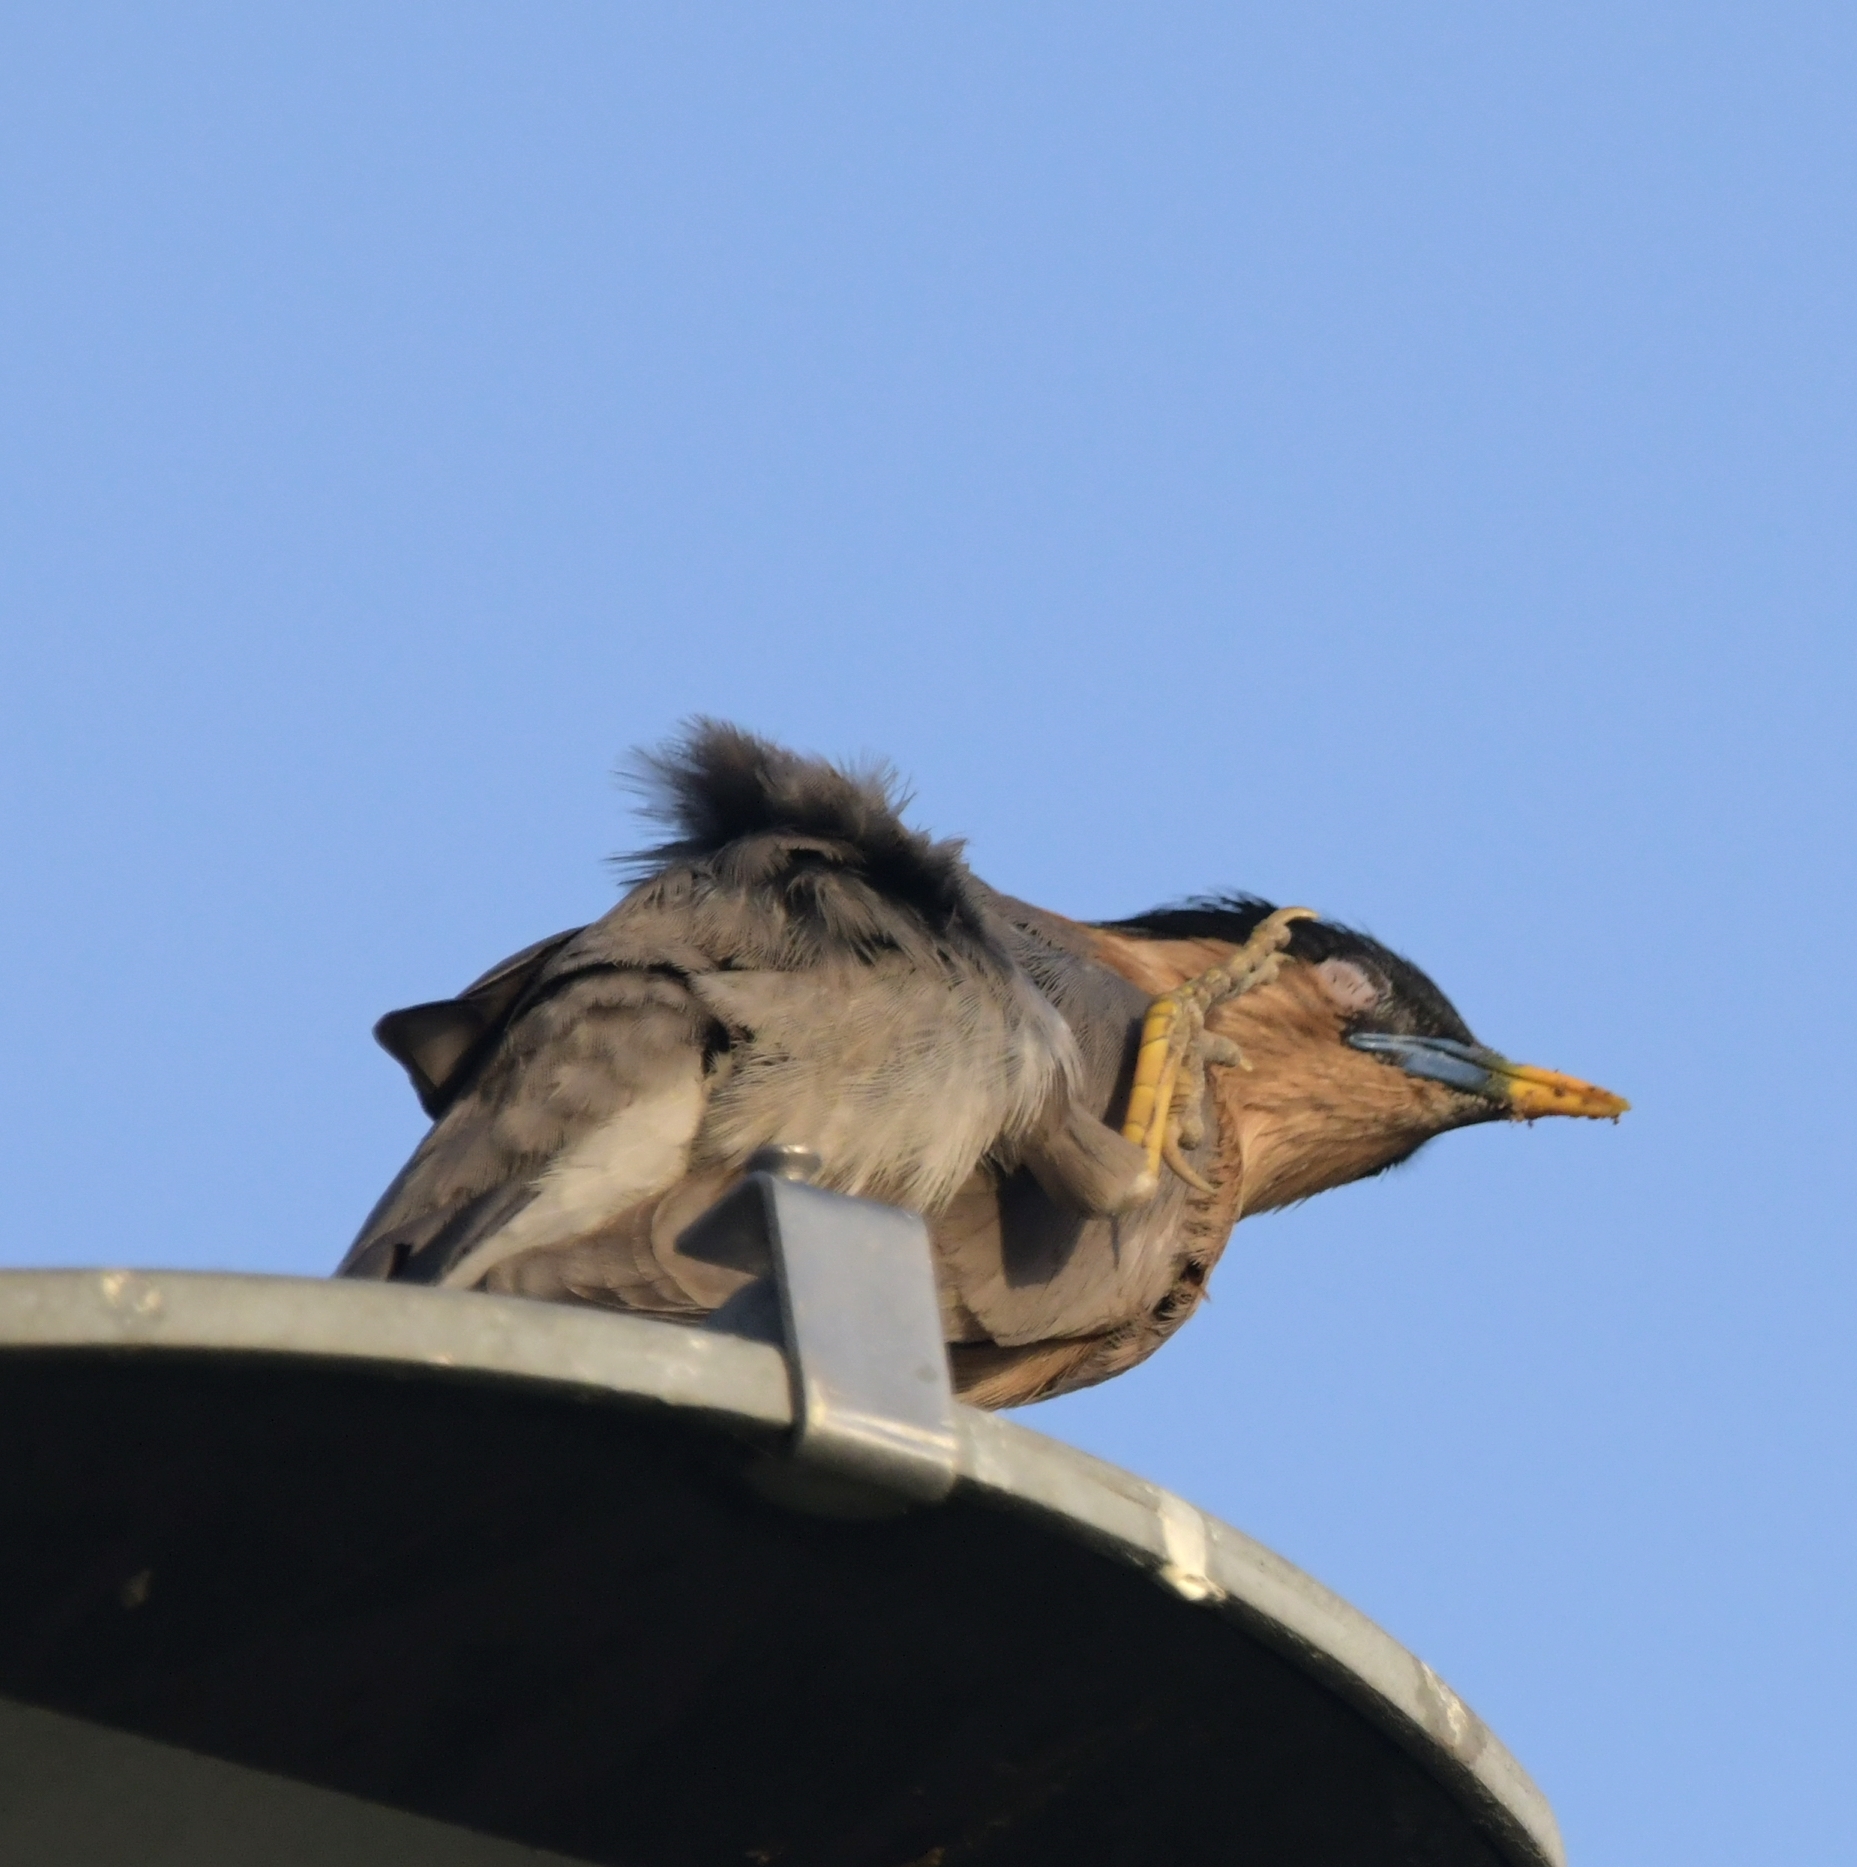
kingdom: Animalia
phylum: Chordata
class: Aves
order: Passeriformes
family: Sturnidae
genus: Sturnia
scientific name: Sturnia pagodarum
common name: Brahminy starling
